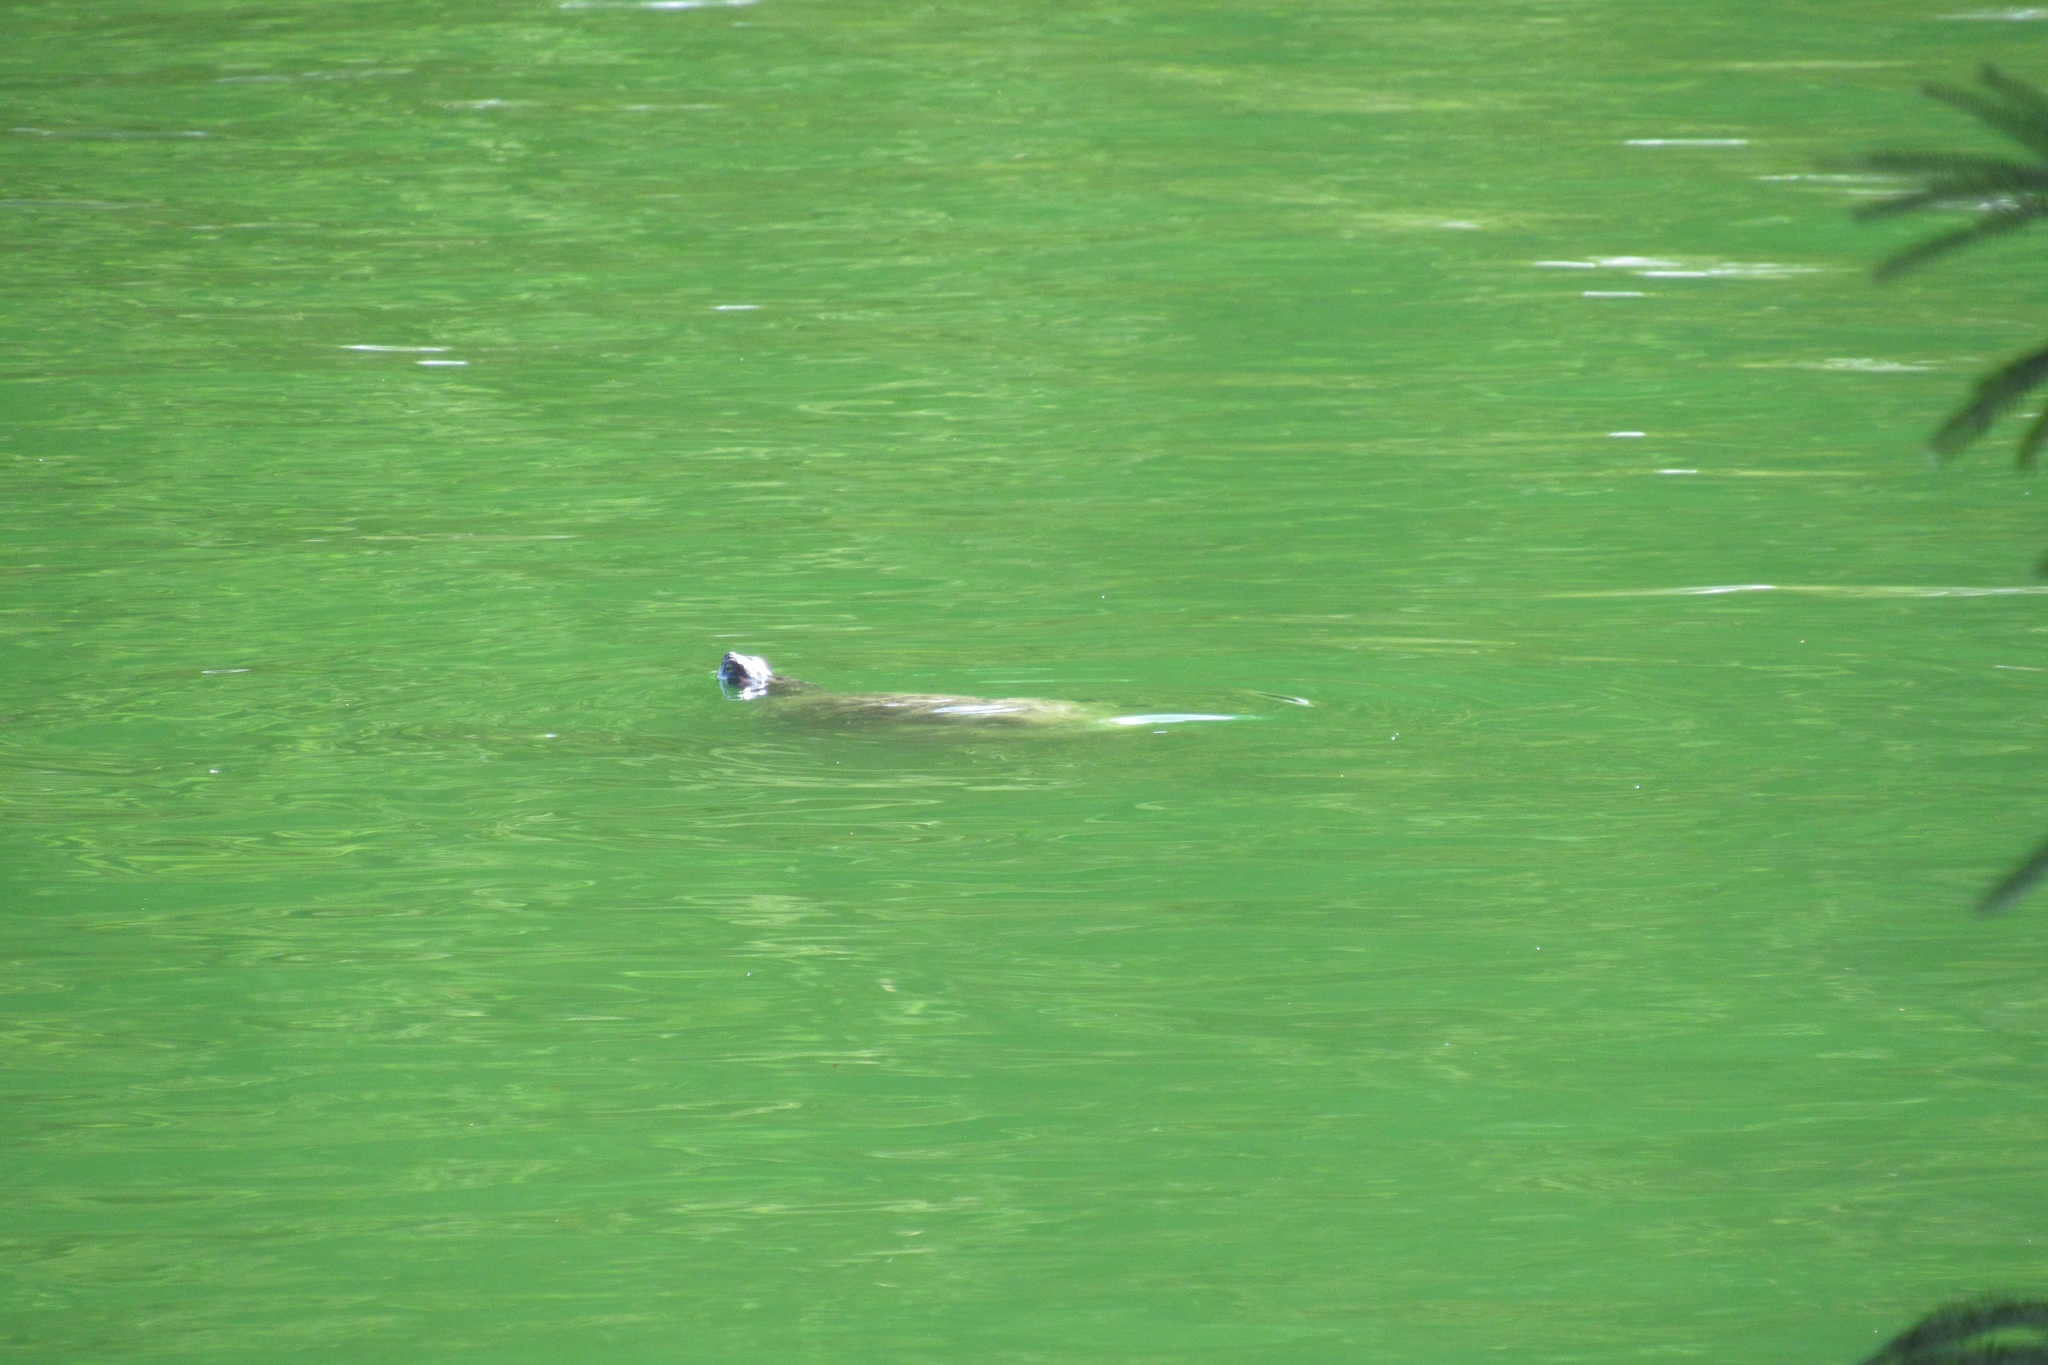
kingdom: Animalia
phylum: Chordata
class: Testudines
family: Emydidae
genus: Trachemys
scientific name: Trachemys scripta
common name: Slider
